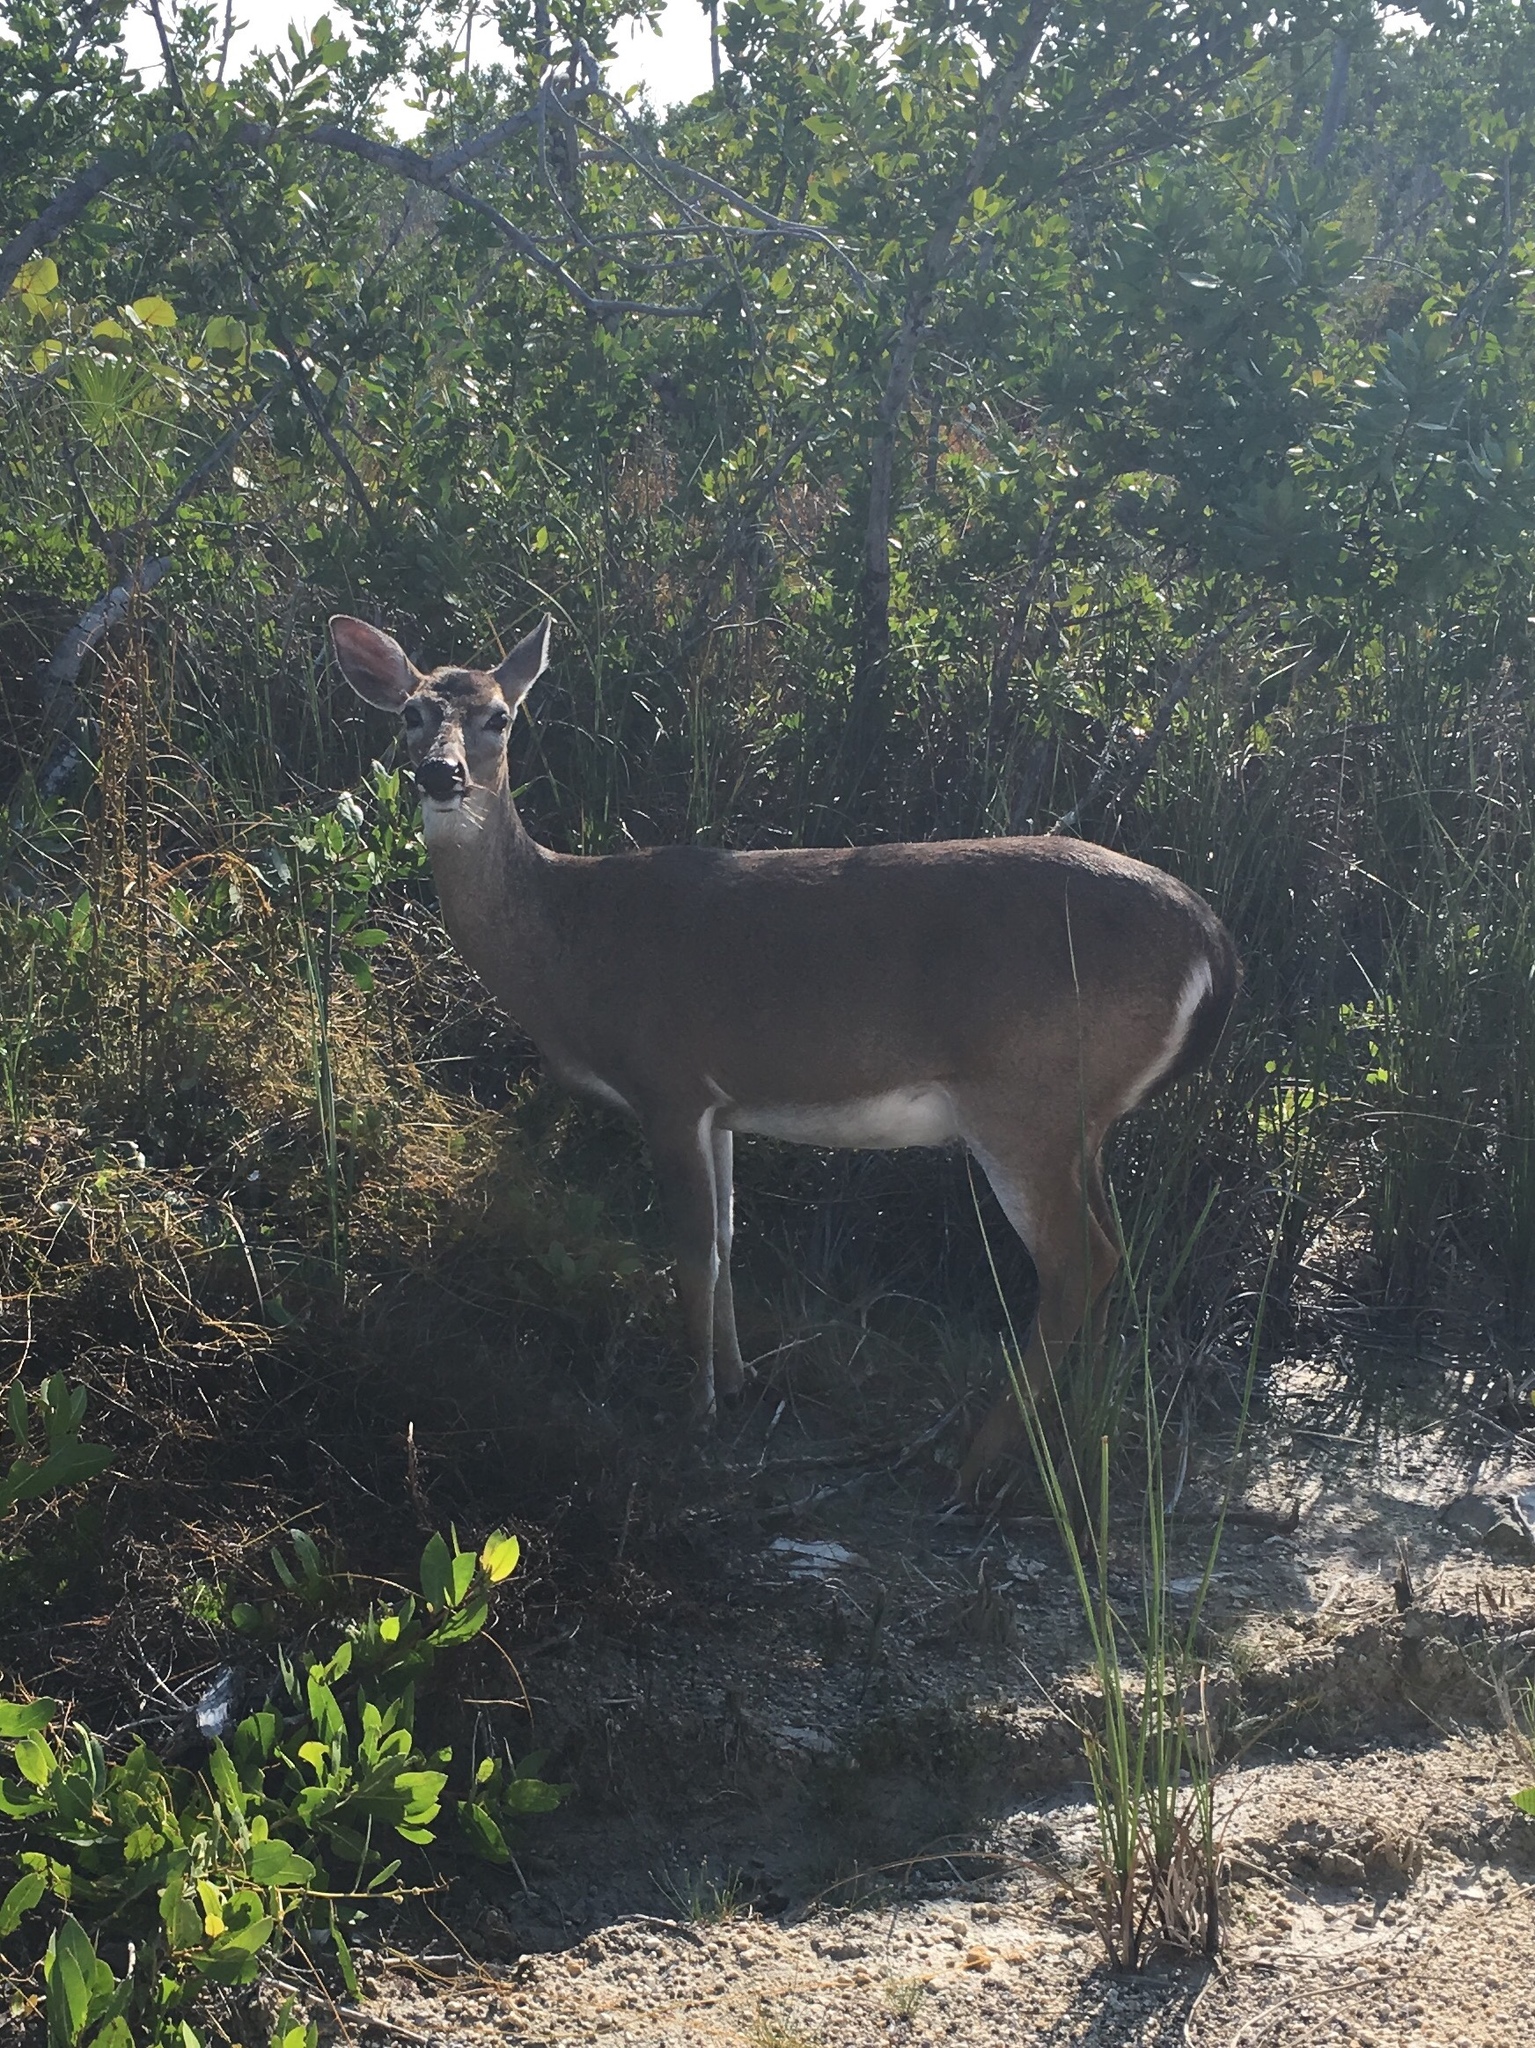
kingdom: Animalia
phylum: Chordata
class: Mammalia
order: Artiodactyla
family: Cervidae
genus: Odocoileus
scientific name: Odocoileus virginianus
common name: White-tailed deer
